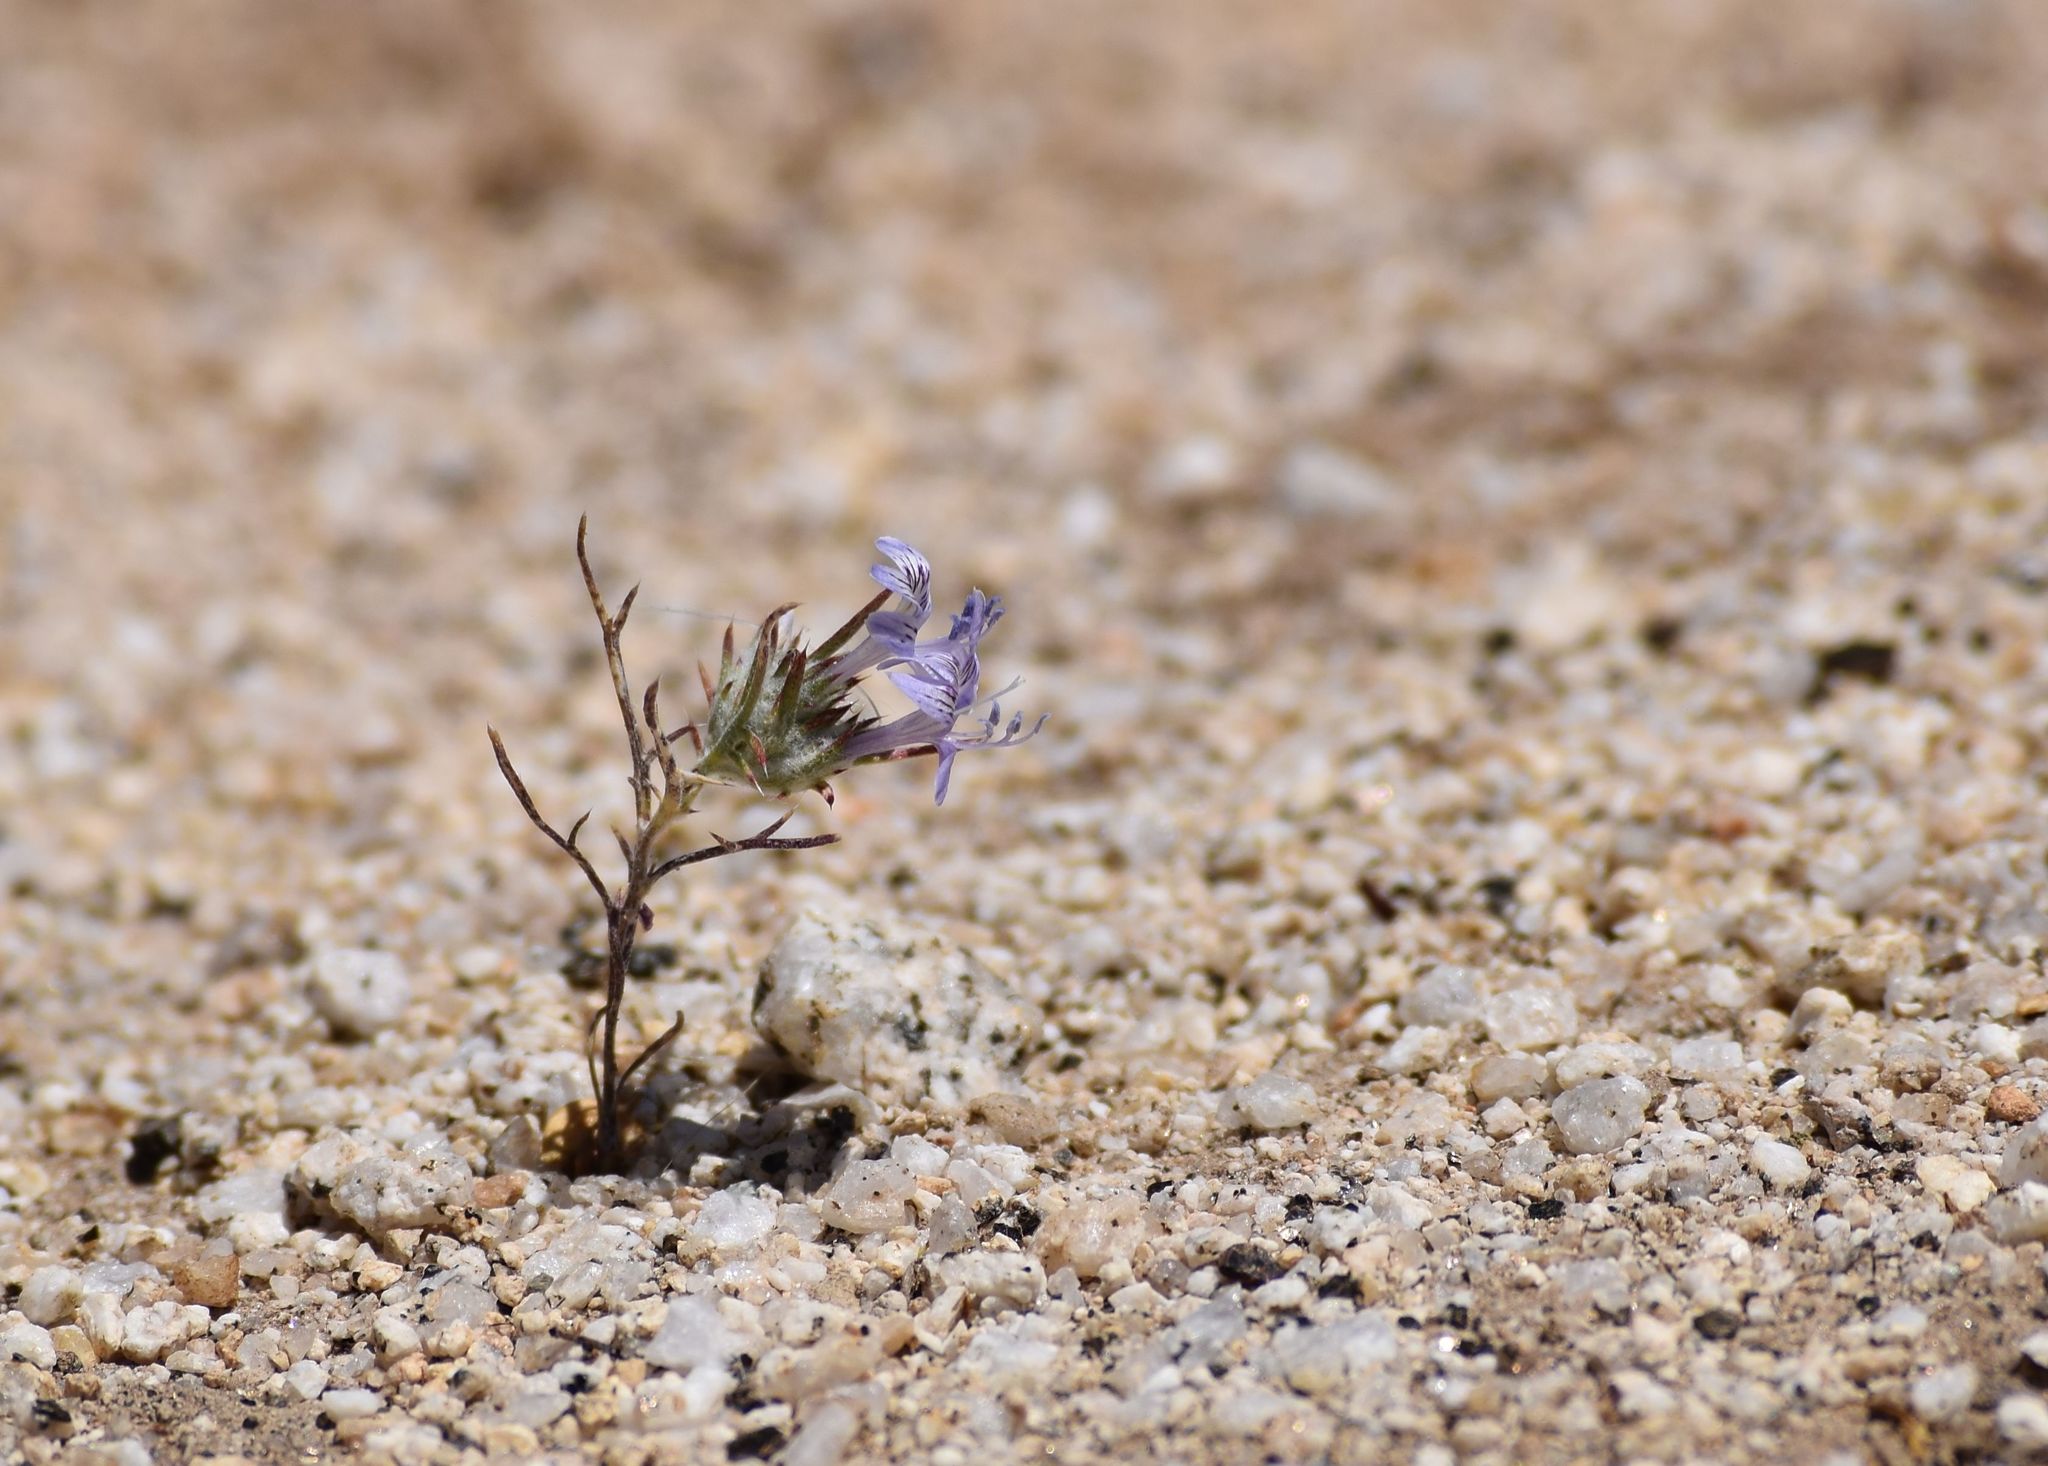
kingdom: Plantae
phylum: Tracheophyta
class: Magnoliopsida
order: Ericales
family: Polemoniaceae
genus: Eriastrum
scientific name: Eriastrum eremicum
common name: Desert eriastrum
